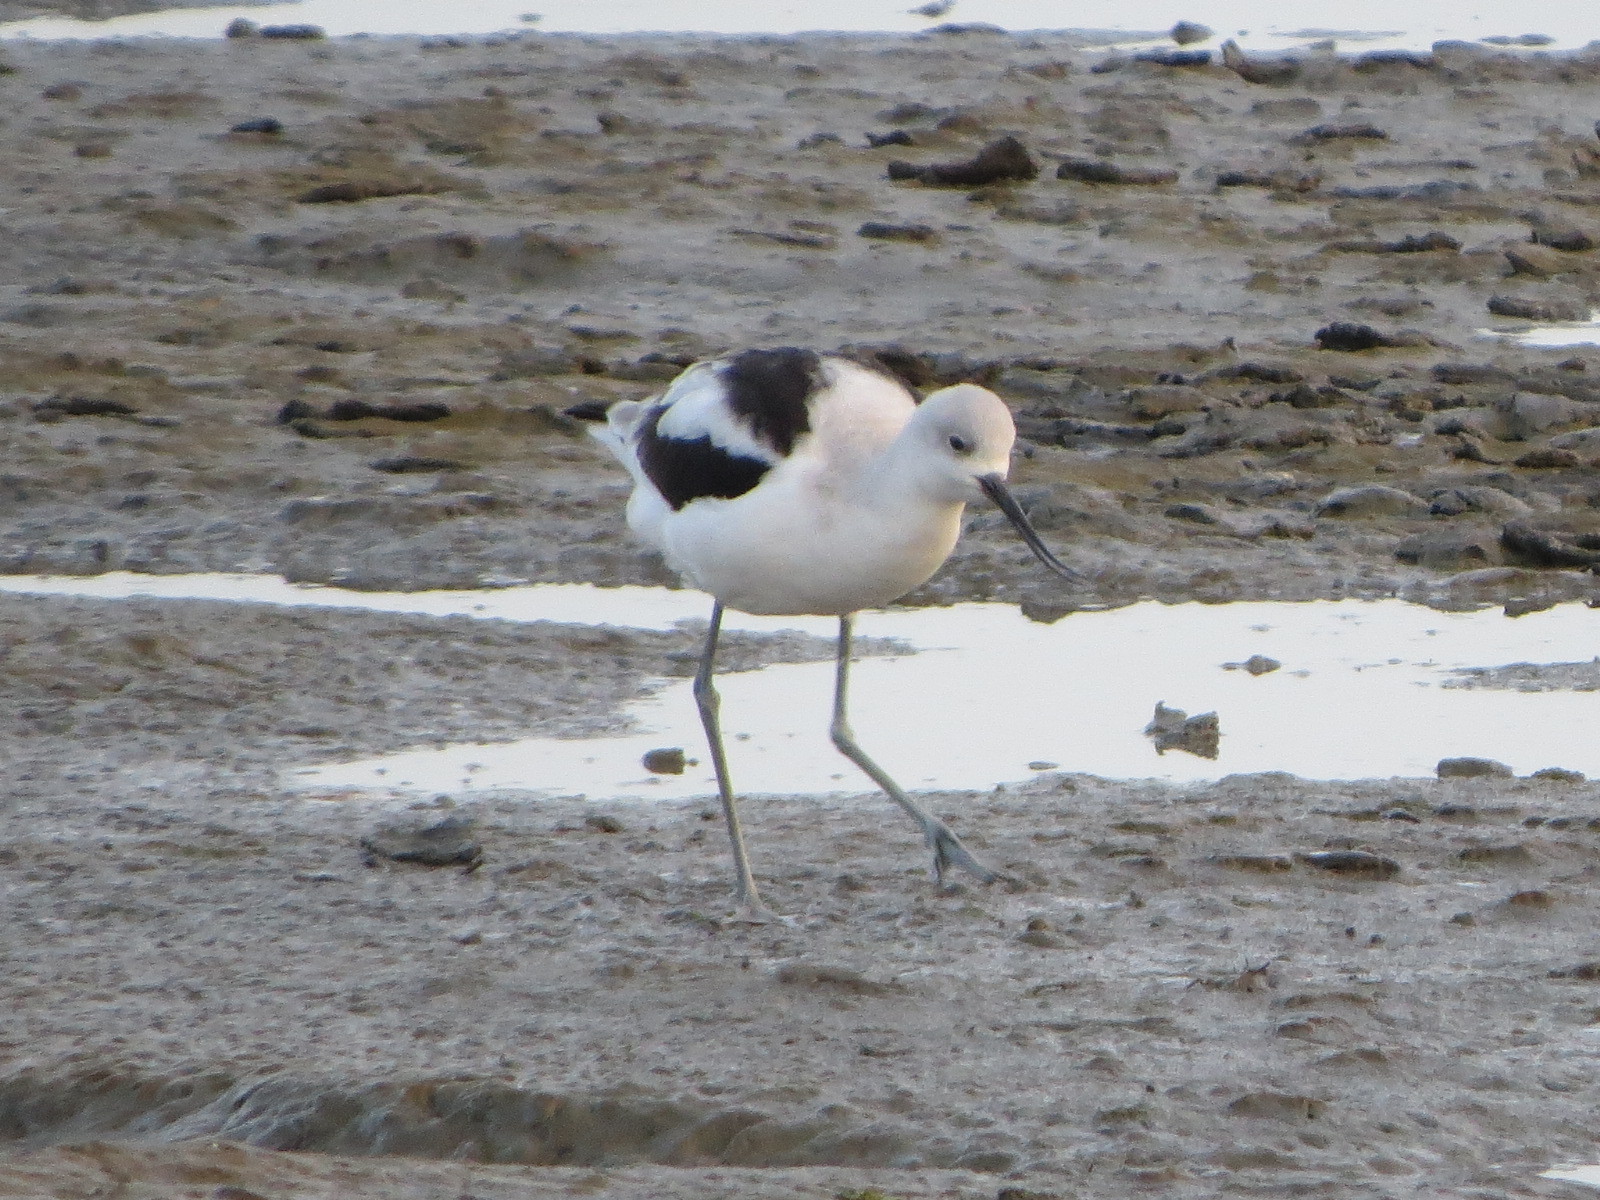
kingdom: Animalia
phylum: Chordata
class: Aves
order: Charadriiformes
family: Recurvirostridae
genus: Recurvirostra
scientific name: Recurvirostra americana
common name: American avocet
